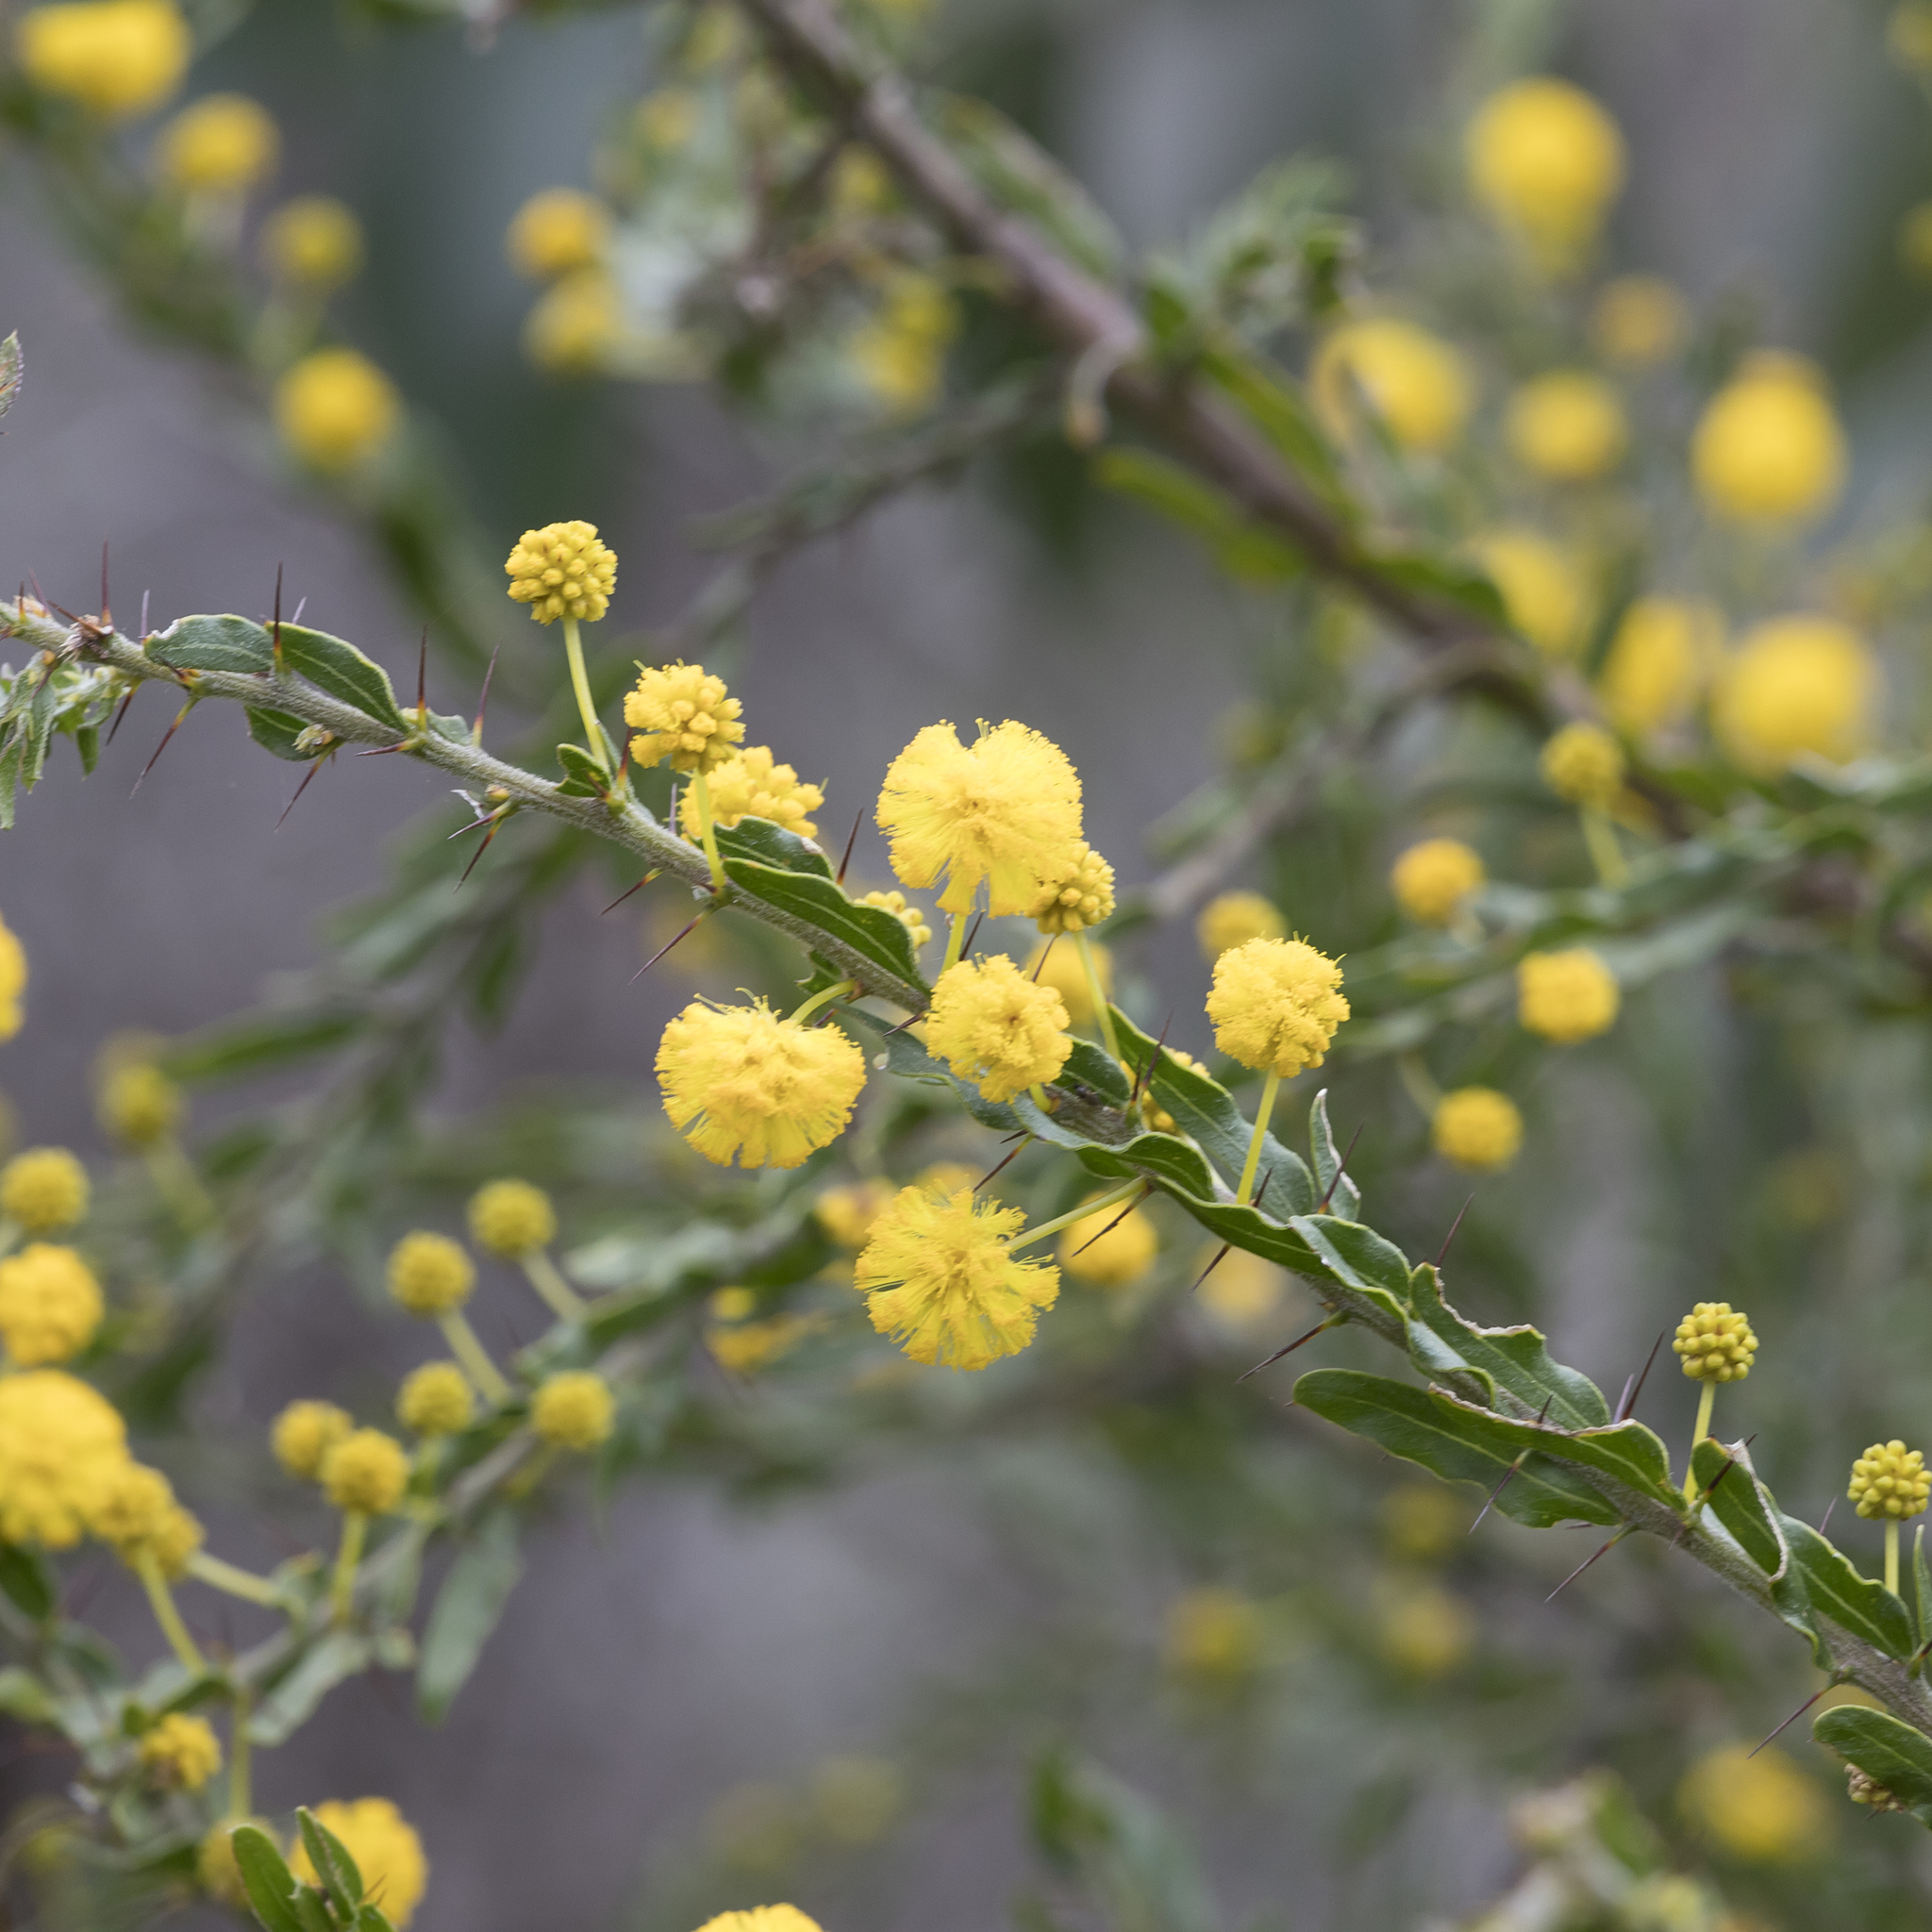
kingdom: Plantae
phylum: Tracheophyta
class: Magnoliopsida
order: Fabales
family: Fabaceae
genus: Acacia
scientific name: Acacia paradoxa
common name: Paradox acacia
